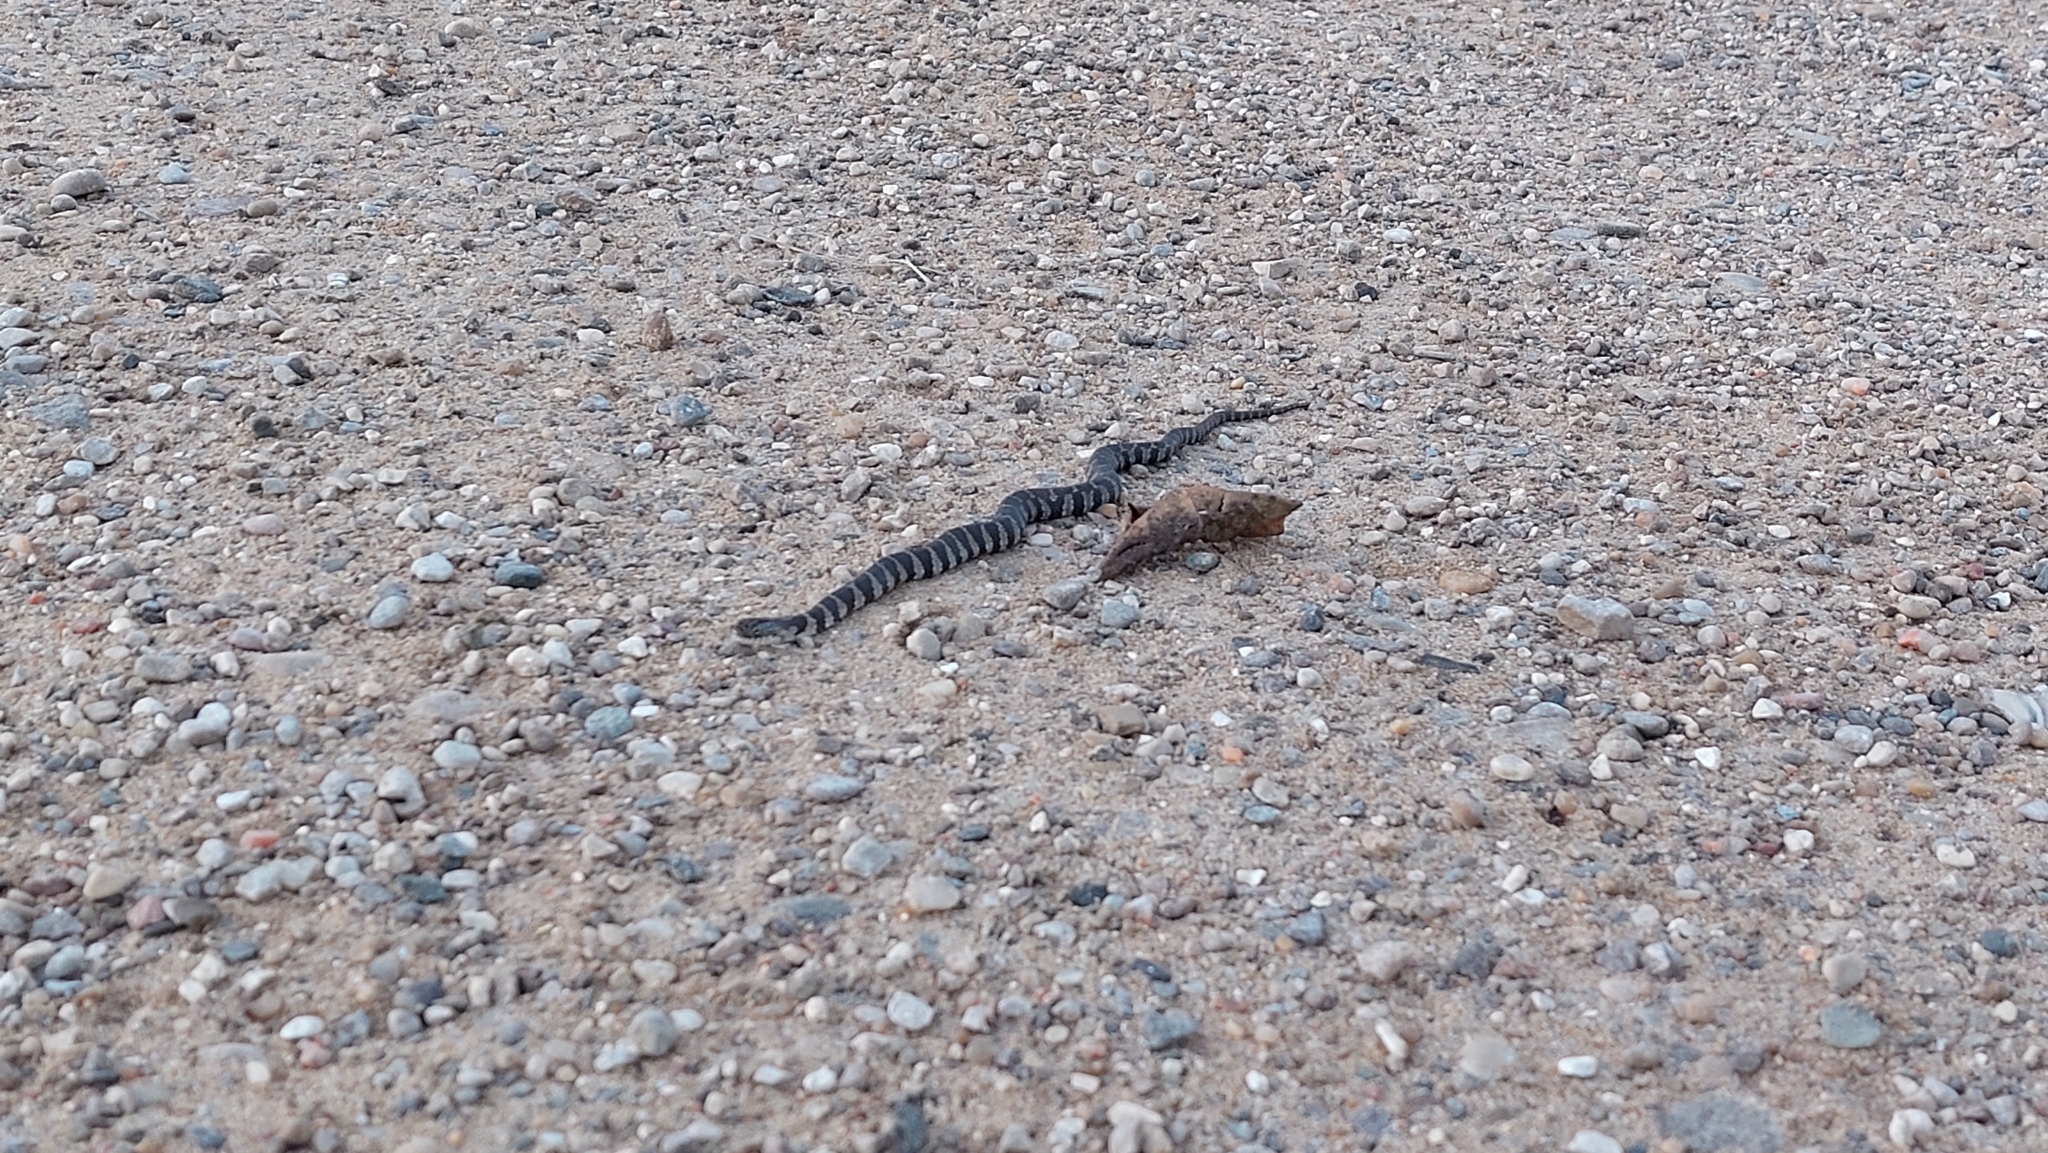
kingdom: Animalia
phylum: Chordata
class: Squamata
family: Colubridae
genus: Nerodia
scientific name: Nerodia sipedon
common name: Northern water snake
